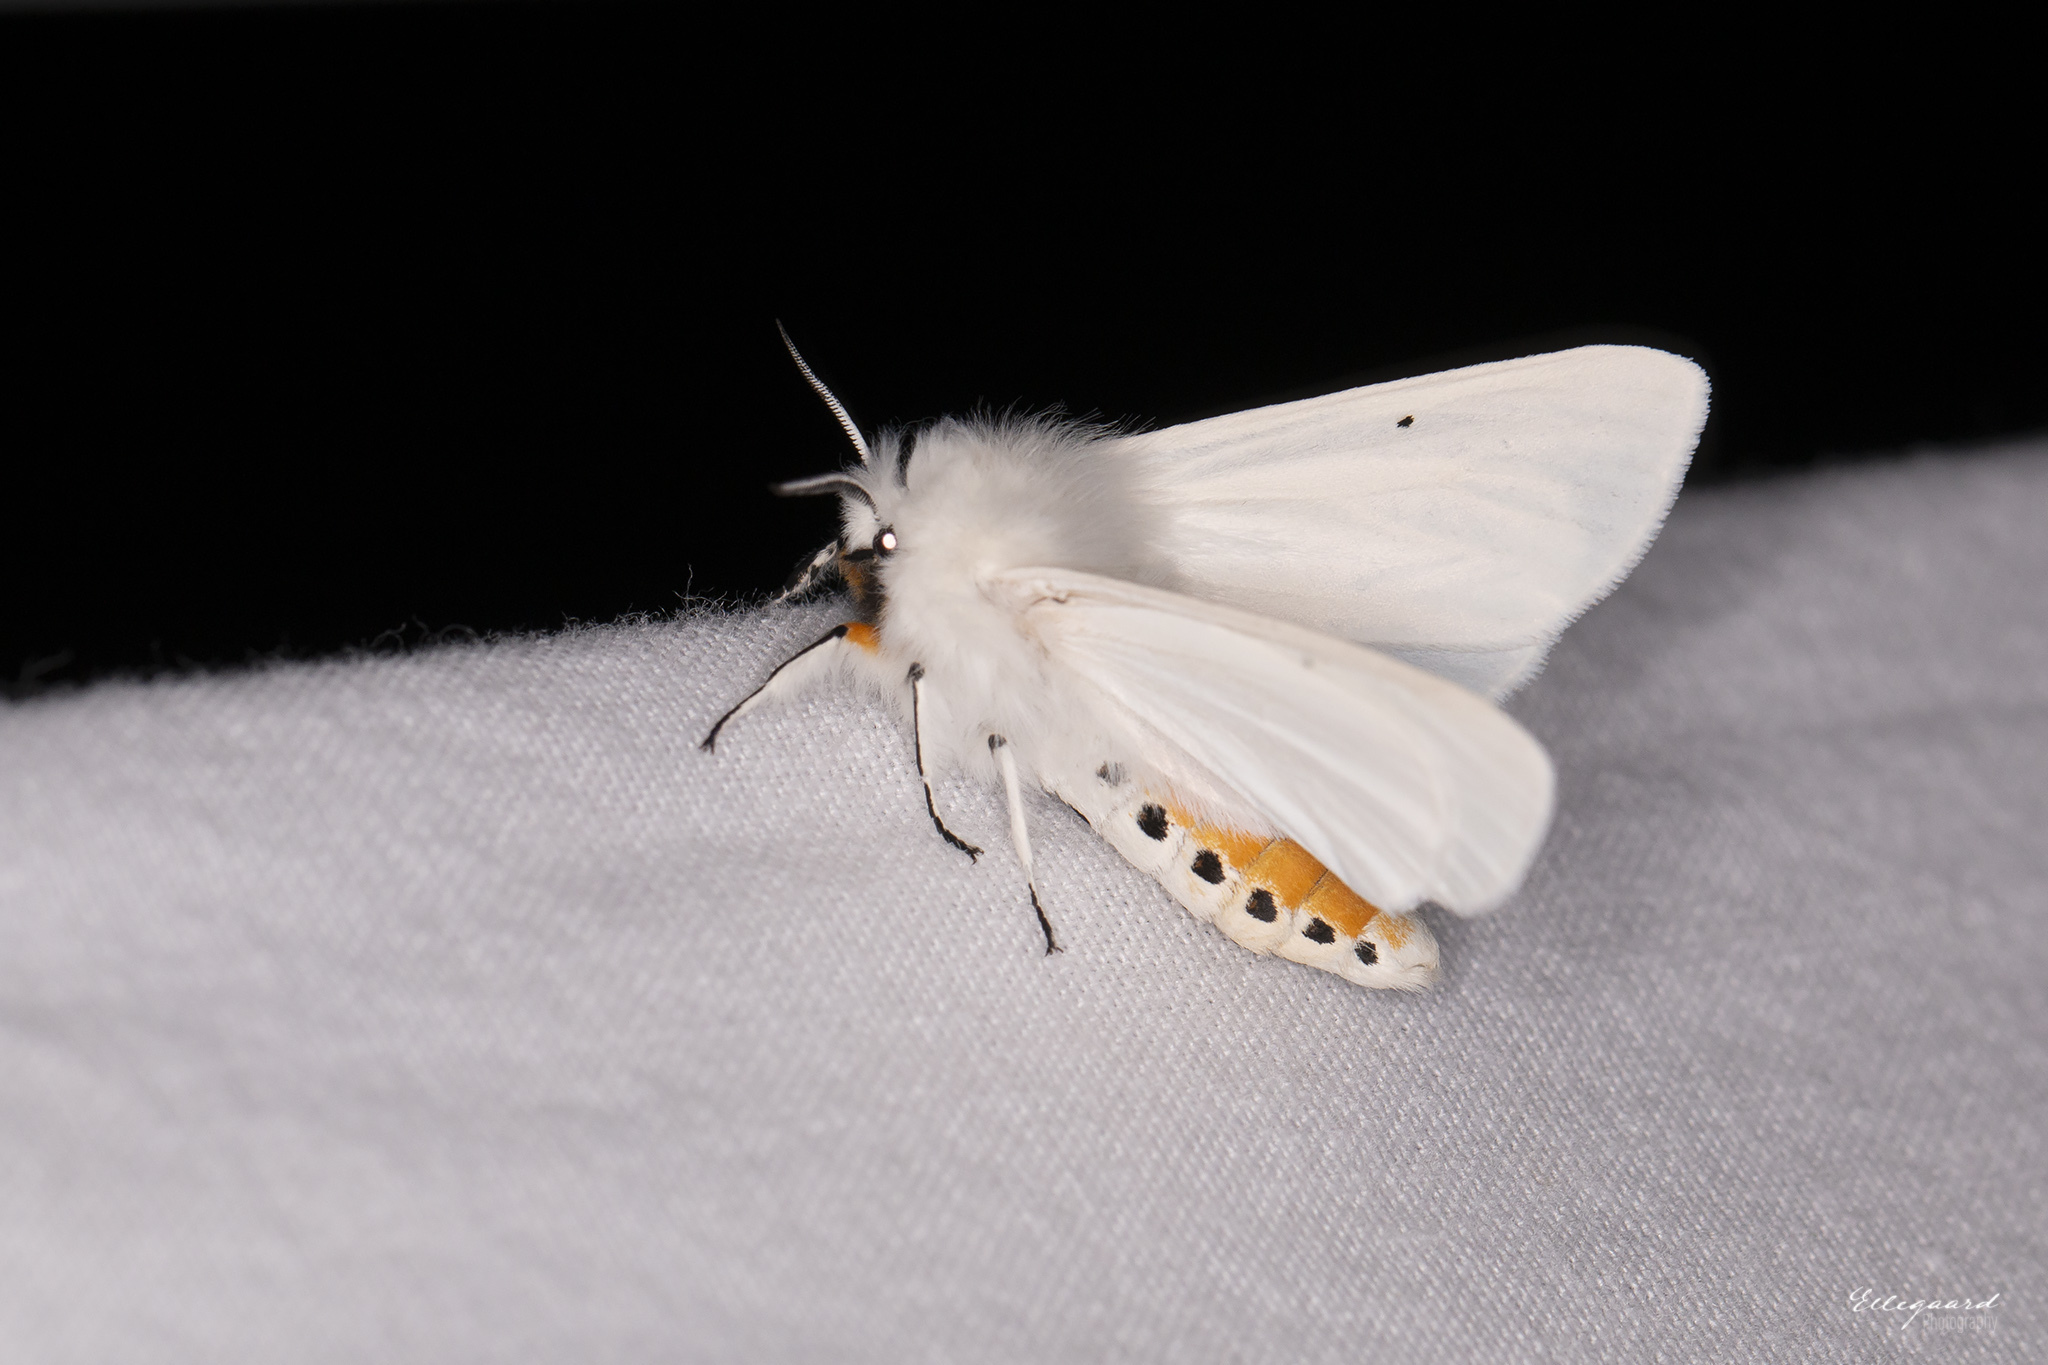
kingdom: Animalia
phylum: Arthropoda
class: Insecta
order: Lepidoptera
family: Erebidae
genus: Spilosoma
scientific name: Spilosoma urticae
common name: Water ermine
